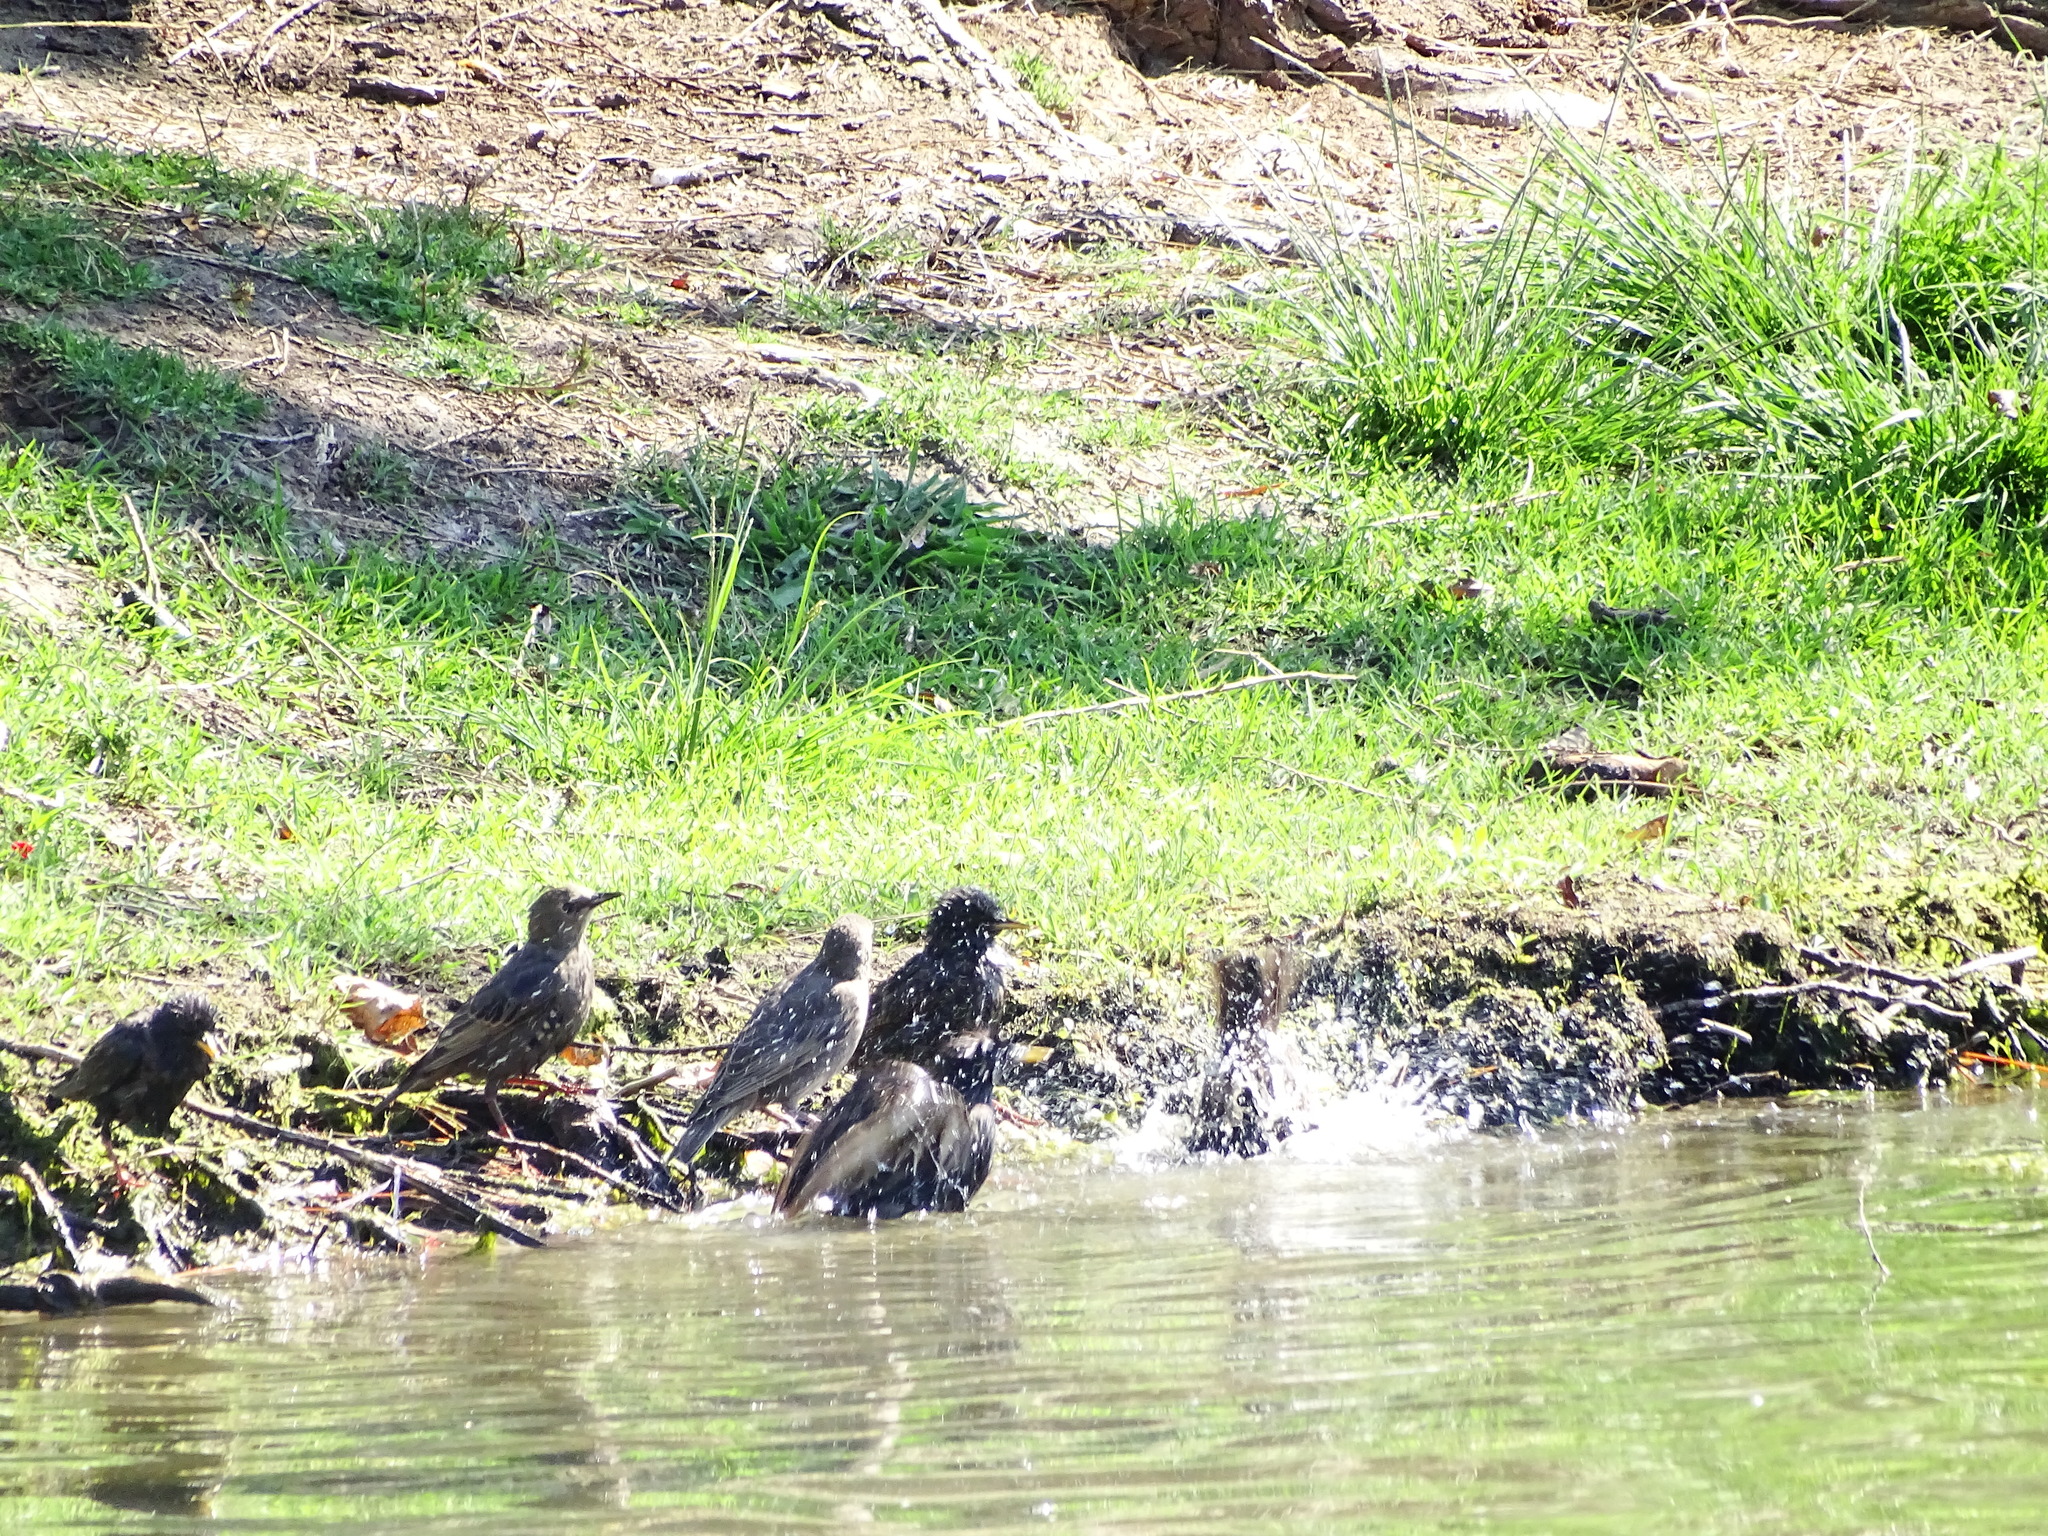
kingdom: Animalia
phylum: Chordata
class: Aves
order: Passeriformes
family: Sturnidae
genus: Sturnus
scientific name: Sturnus vulgaris
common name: Common starling
